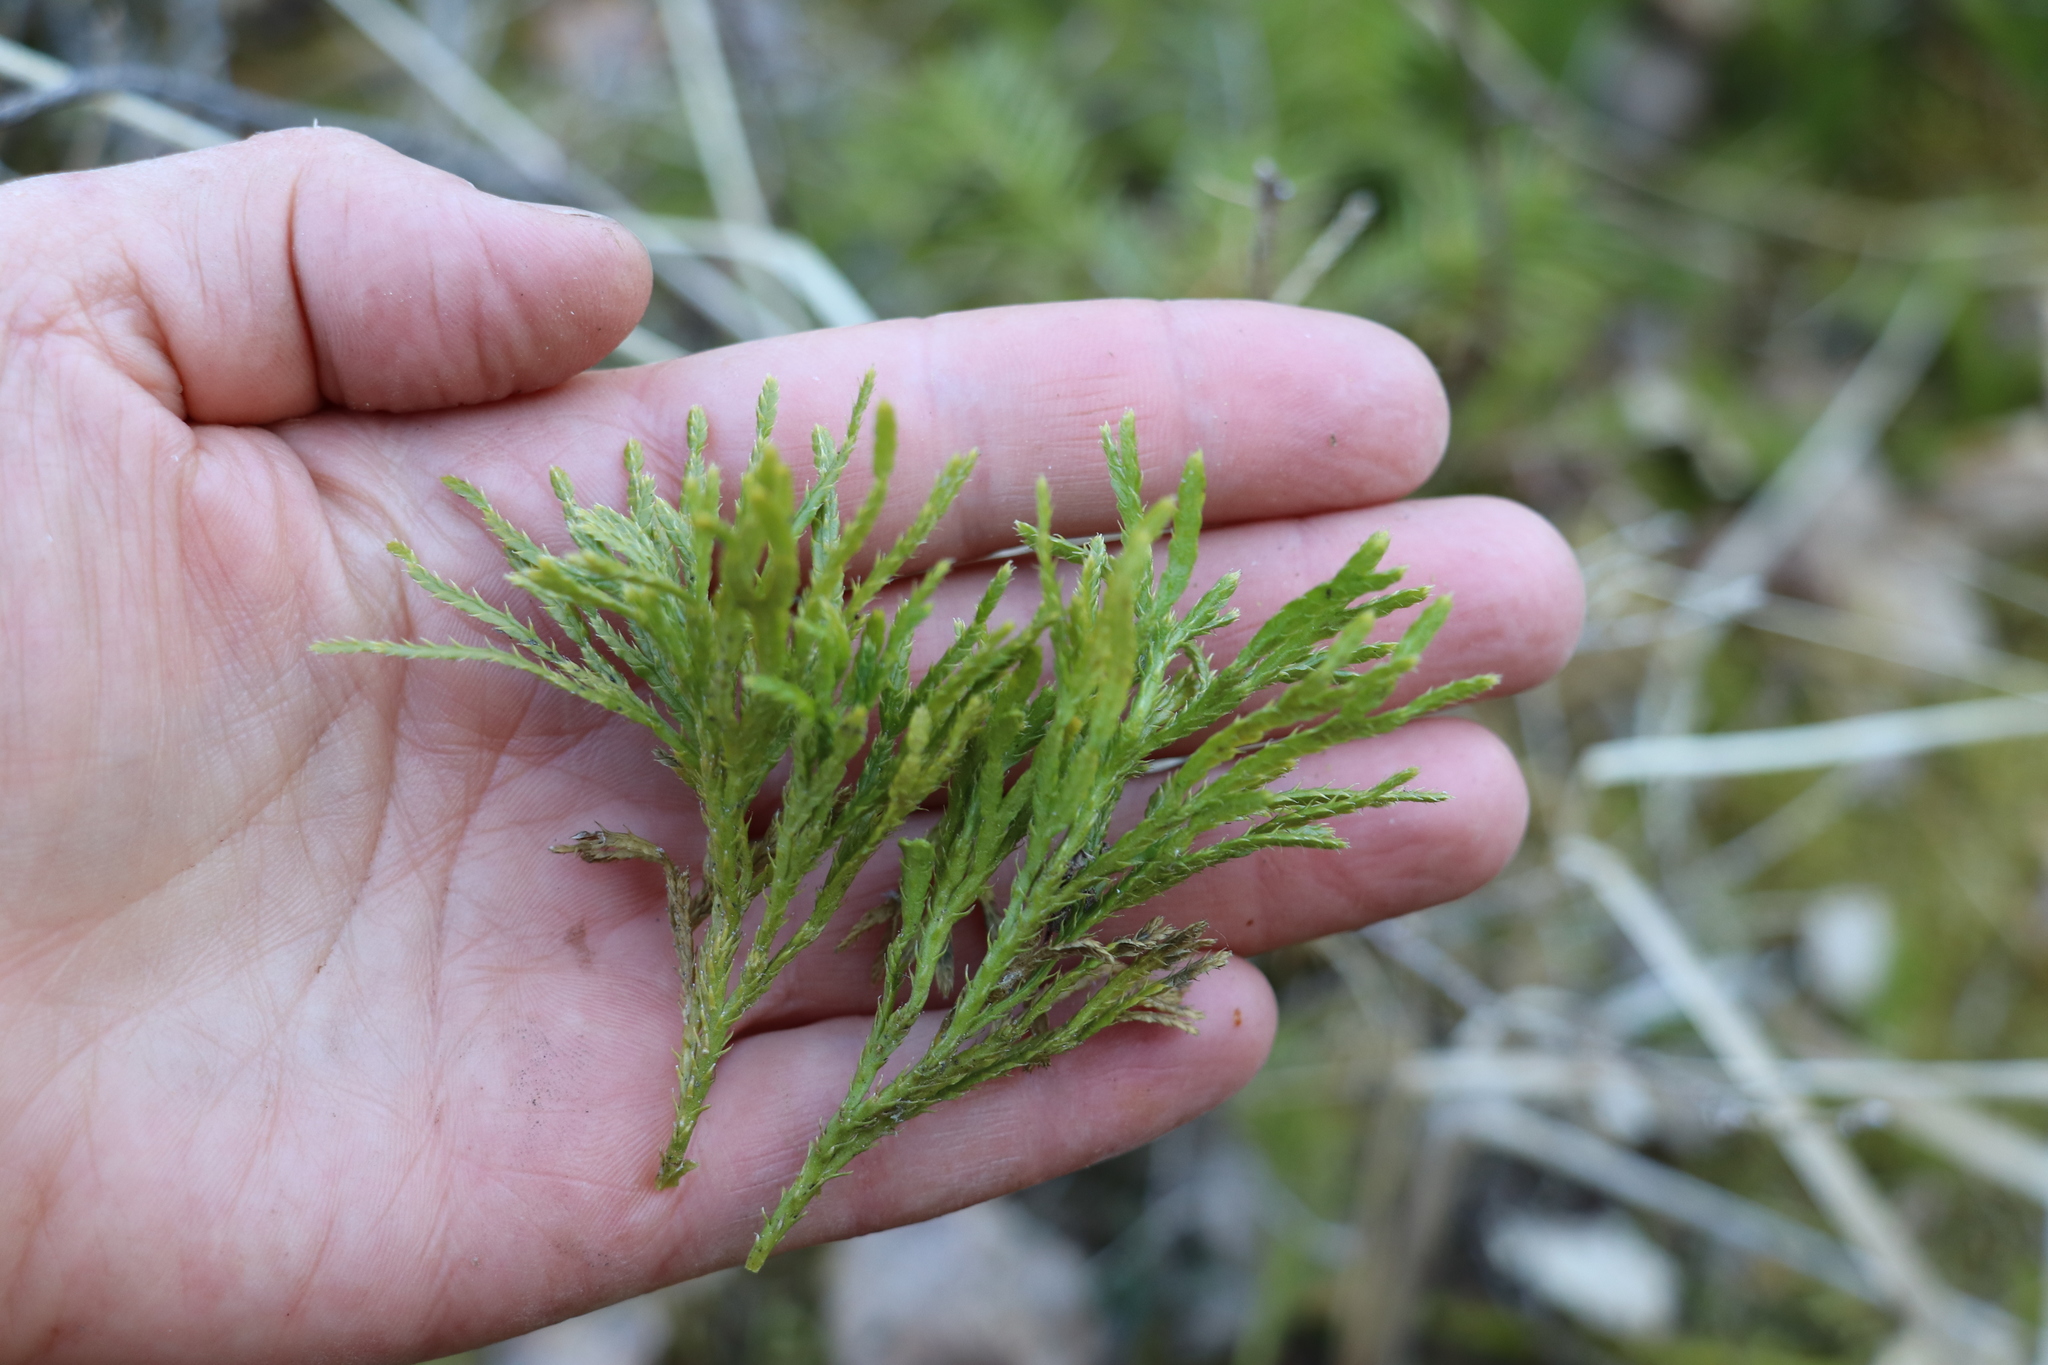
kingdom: Plantae
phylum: Tracheophyta
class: Lycopodiopsida
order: Lycopodiales
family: Lycopodiaceae
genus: Diphasiastrum
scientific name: Diphasiastrum complanatum
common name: Northern running-pine
